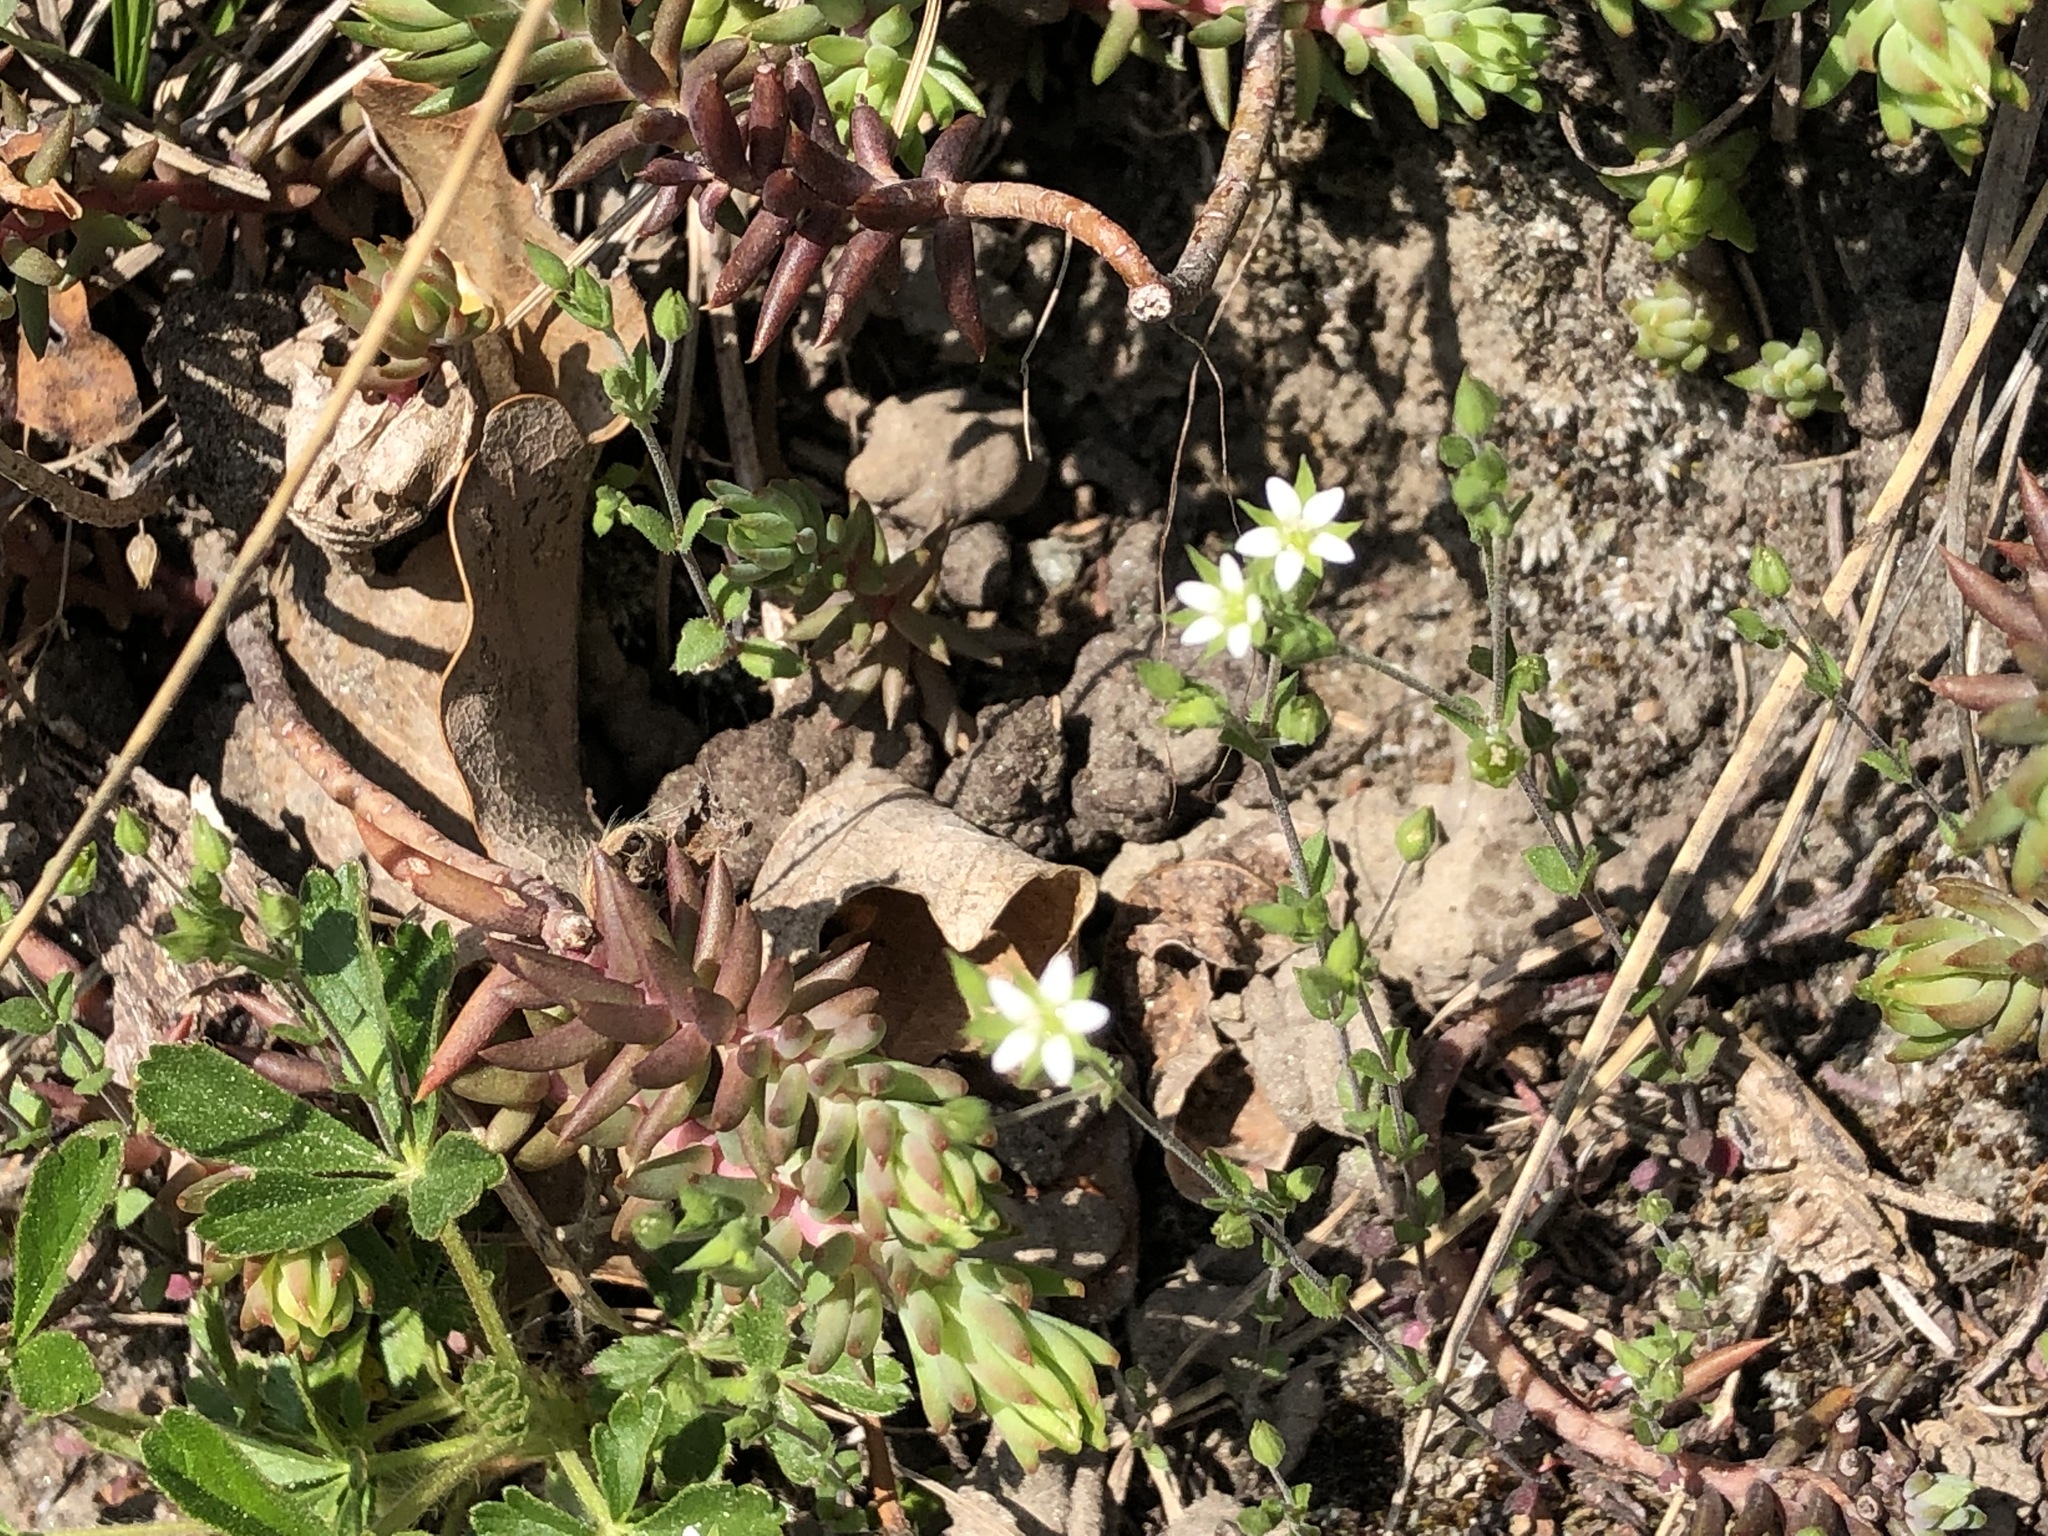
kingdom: Plantae
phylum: Tracheophyta
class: Magnoliopsida
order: Caryophyllales
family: Caryophyllaceae
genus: Arenaria
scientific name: Arenaria serpyllifolia
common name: Thyme-leaved sandwort
